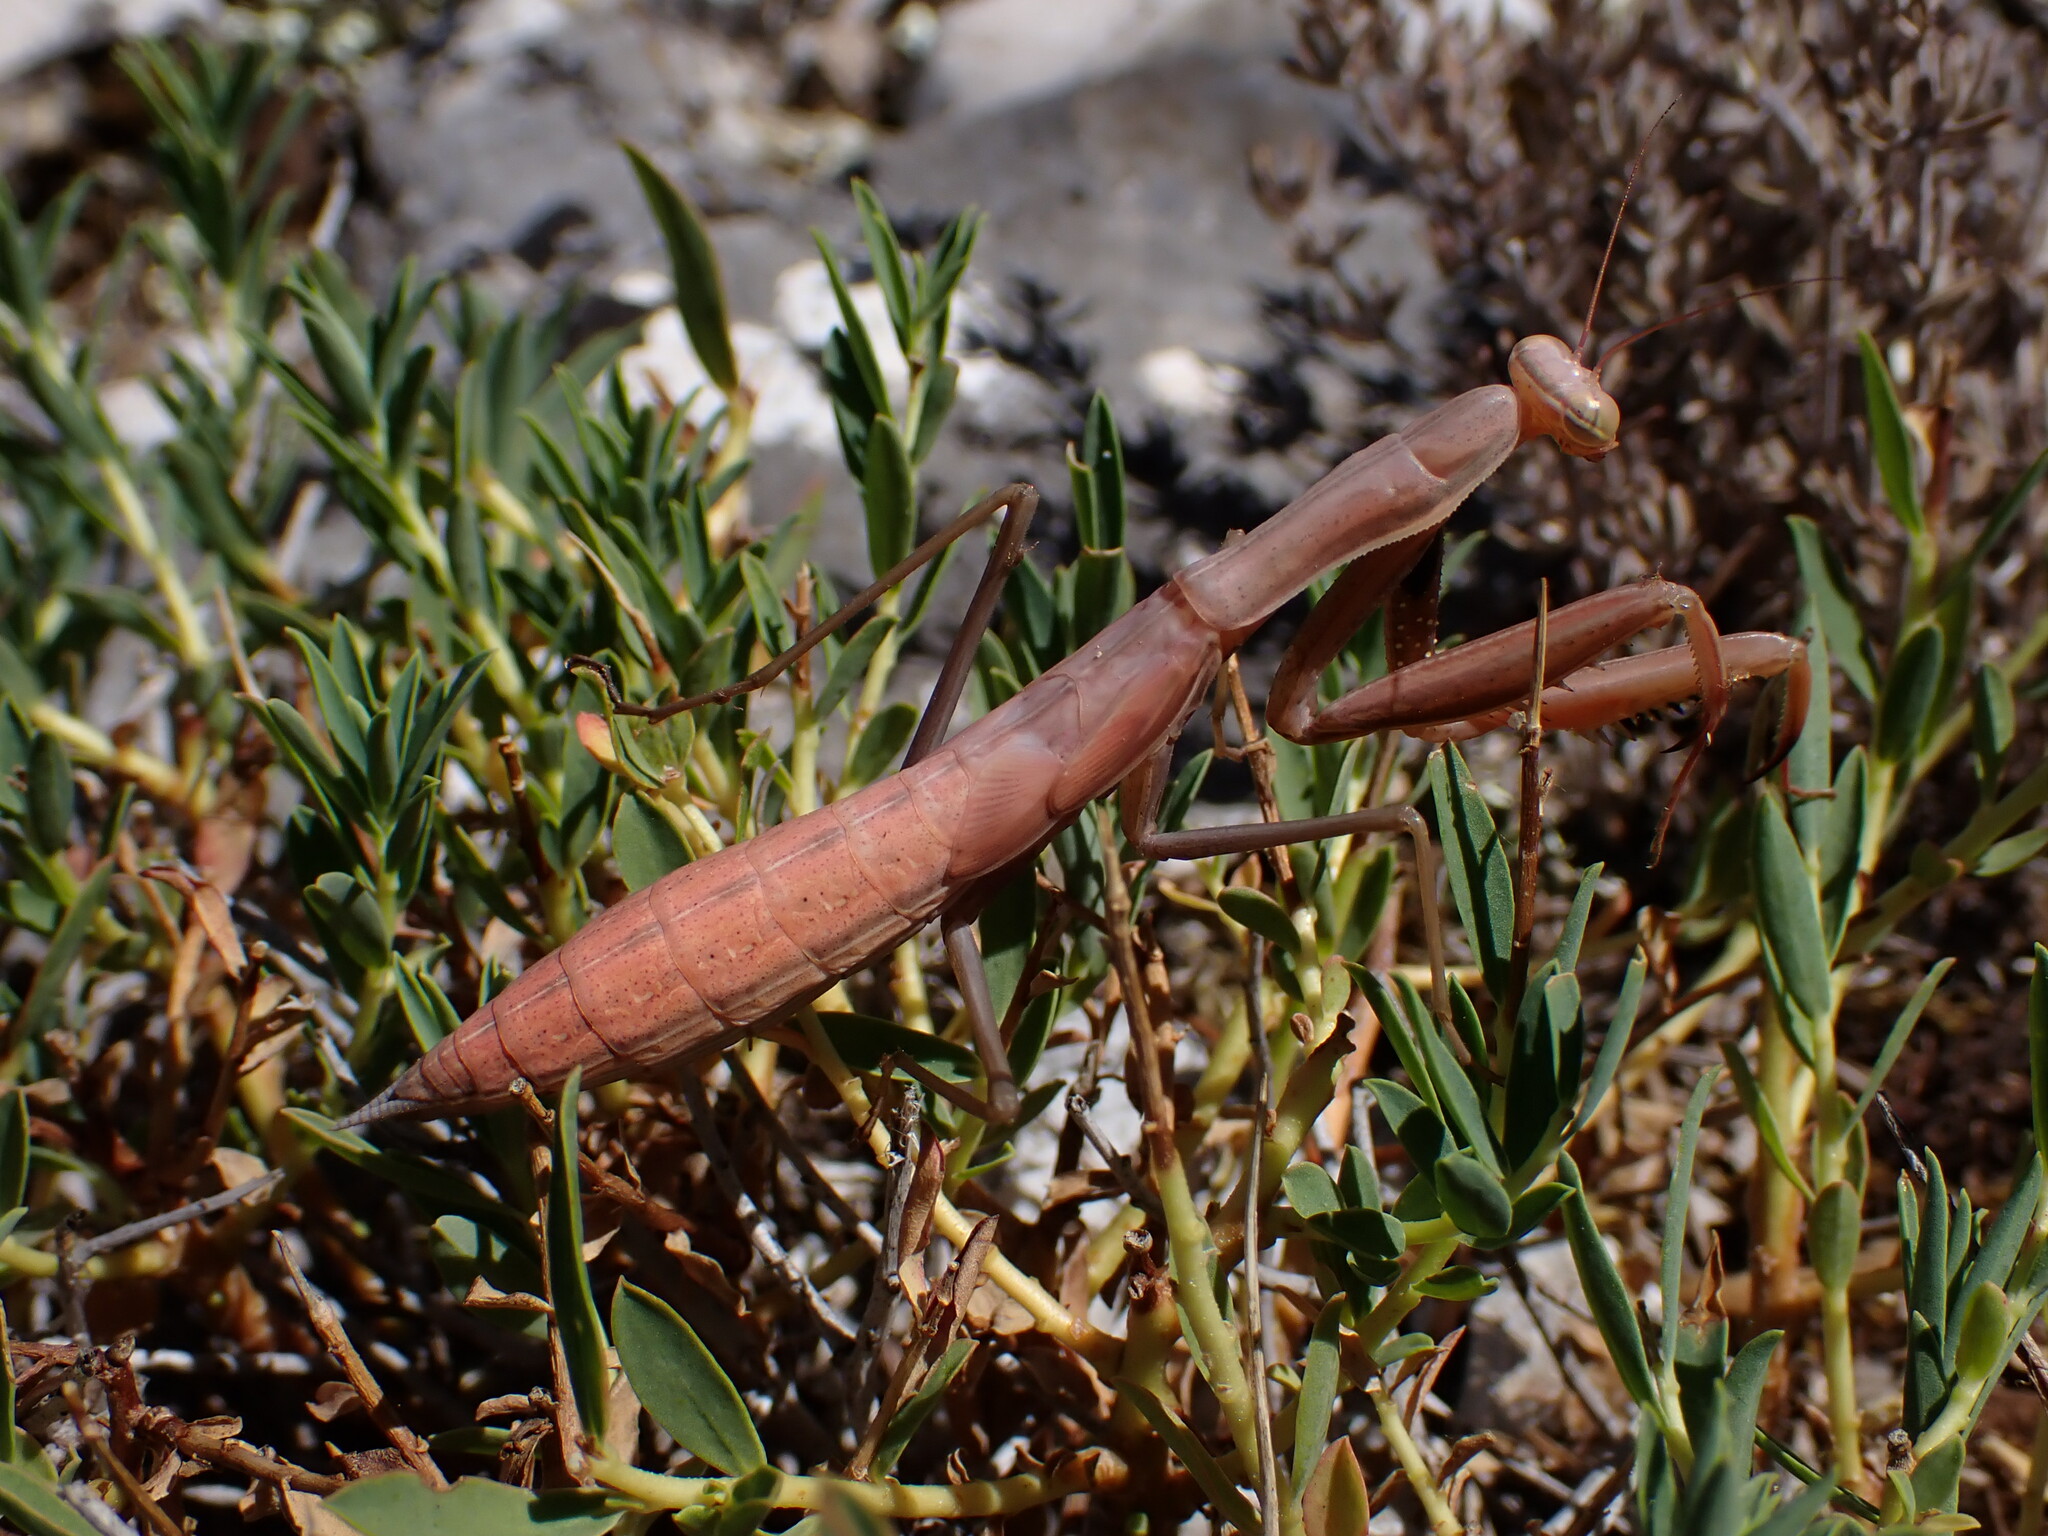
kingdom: Animalia
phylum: Arthropoda
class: Insecta
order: Mantodea
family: Mantidae
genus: Mantis
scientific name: Mantis religiosa
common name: Praying mantis
